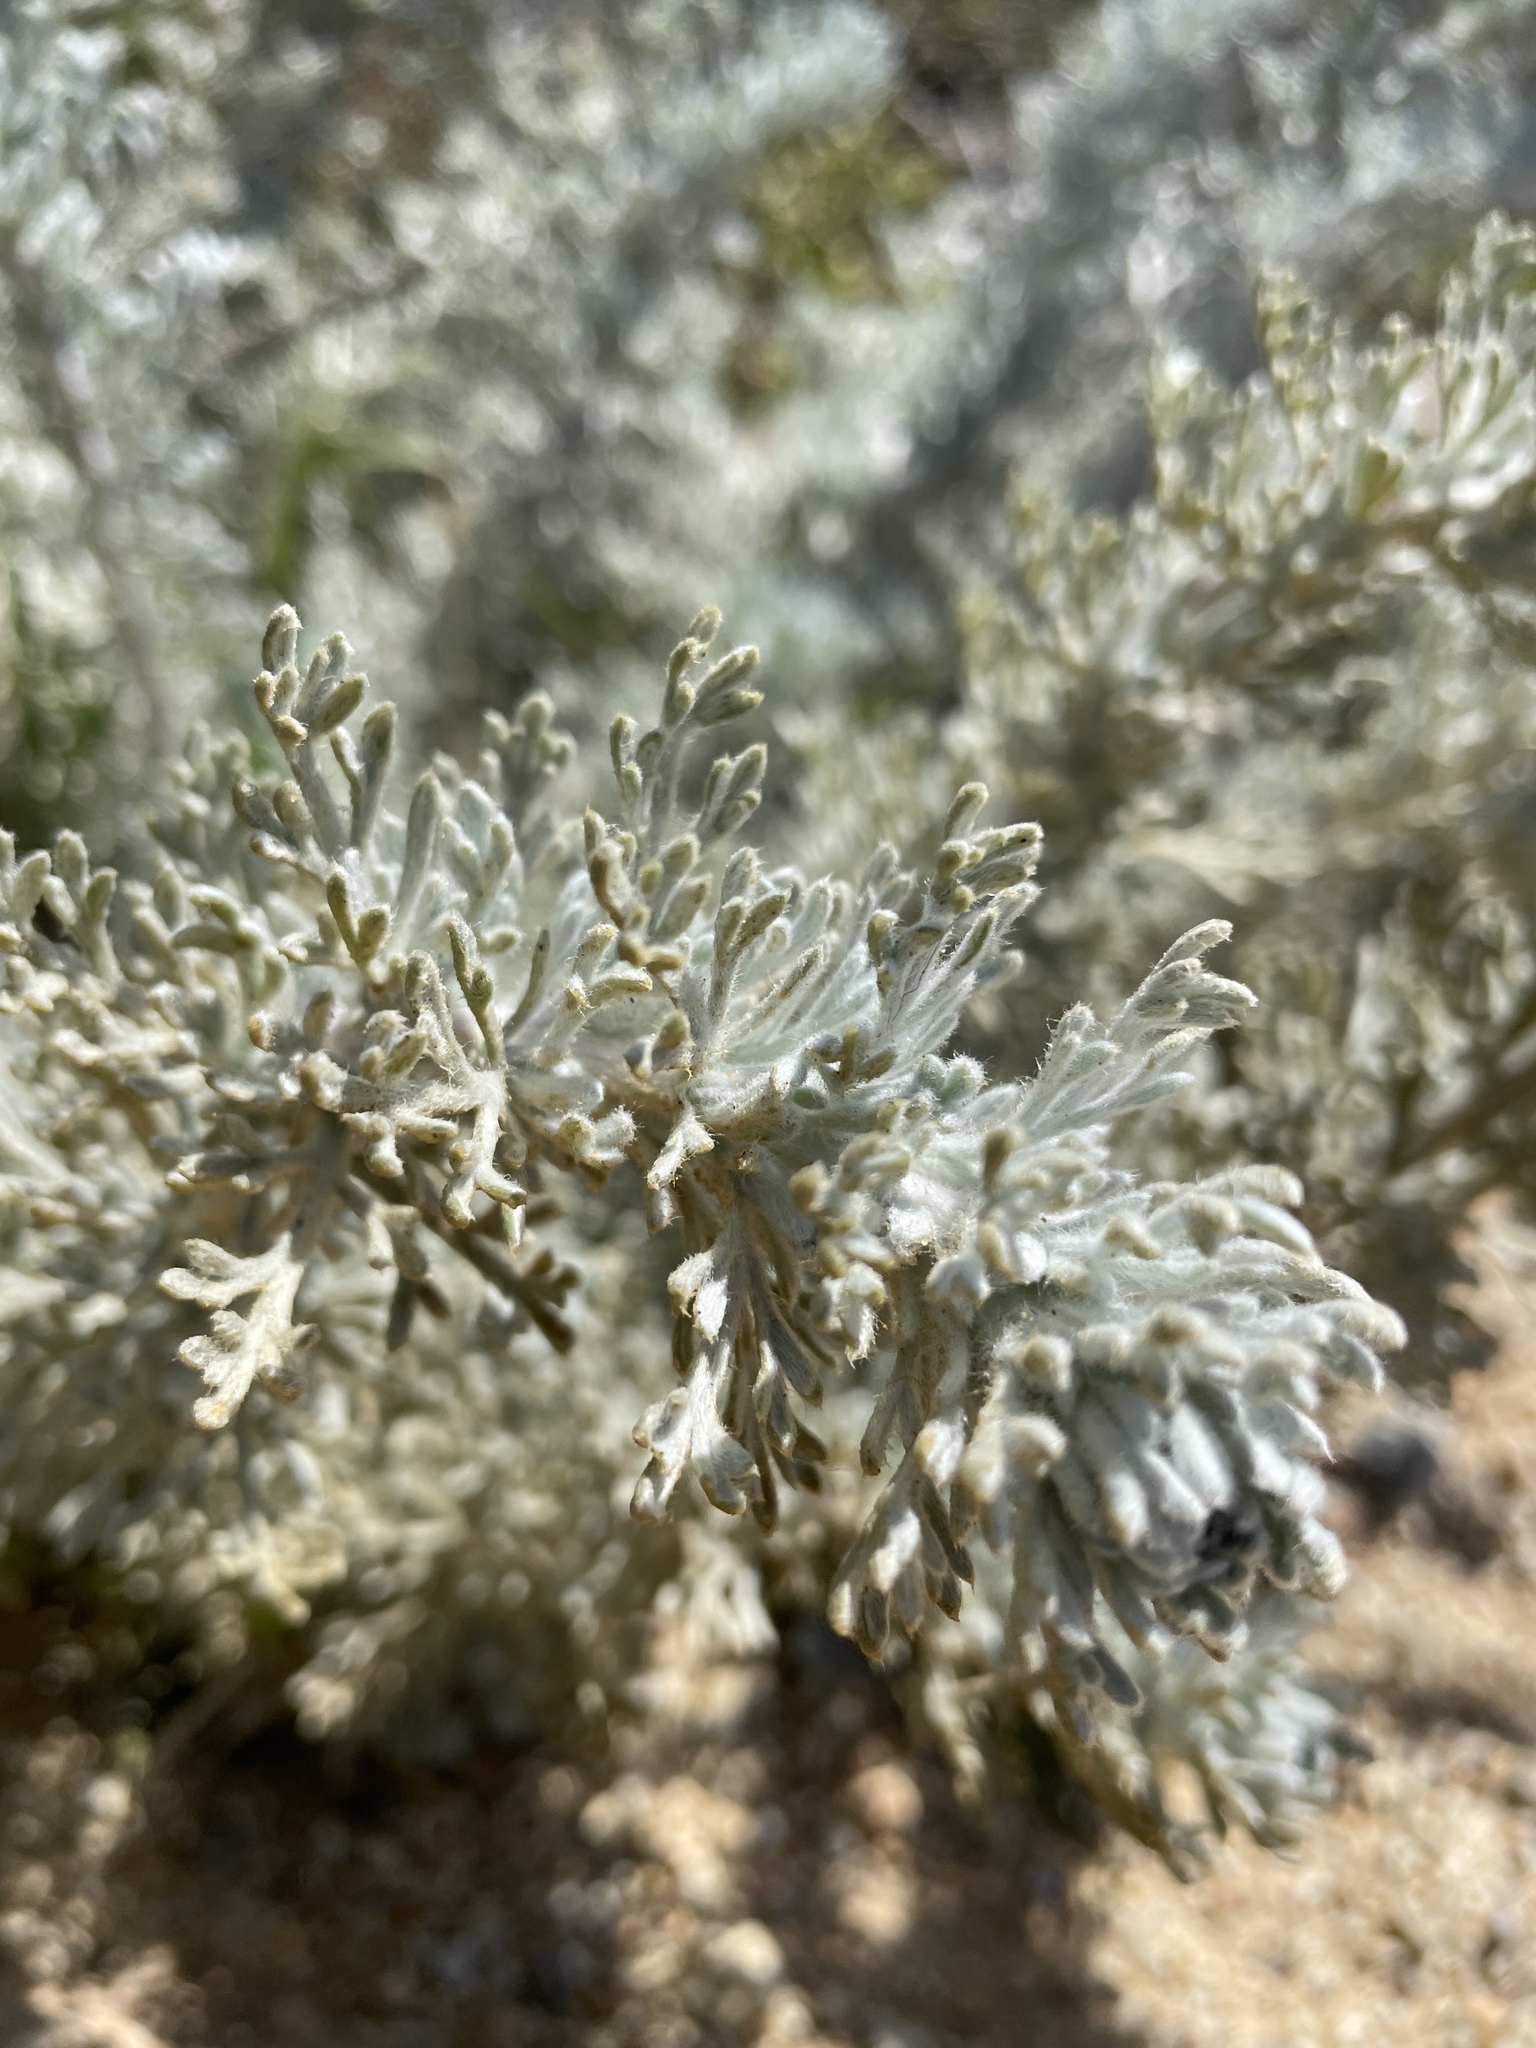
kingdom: Plantae
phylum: Tracheophyta
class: Magnoliopsida
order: Asterales
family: Asteraceae
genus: Artemisia
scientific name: Artemisia pycnocephala
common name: Coastal sagewort
